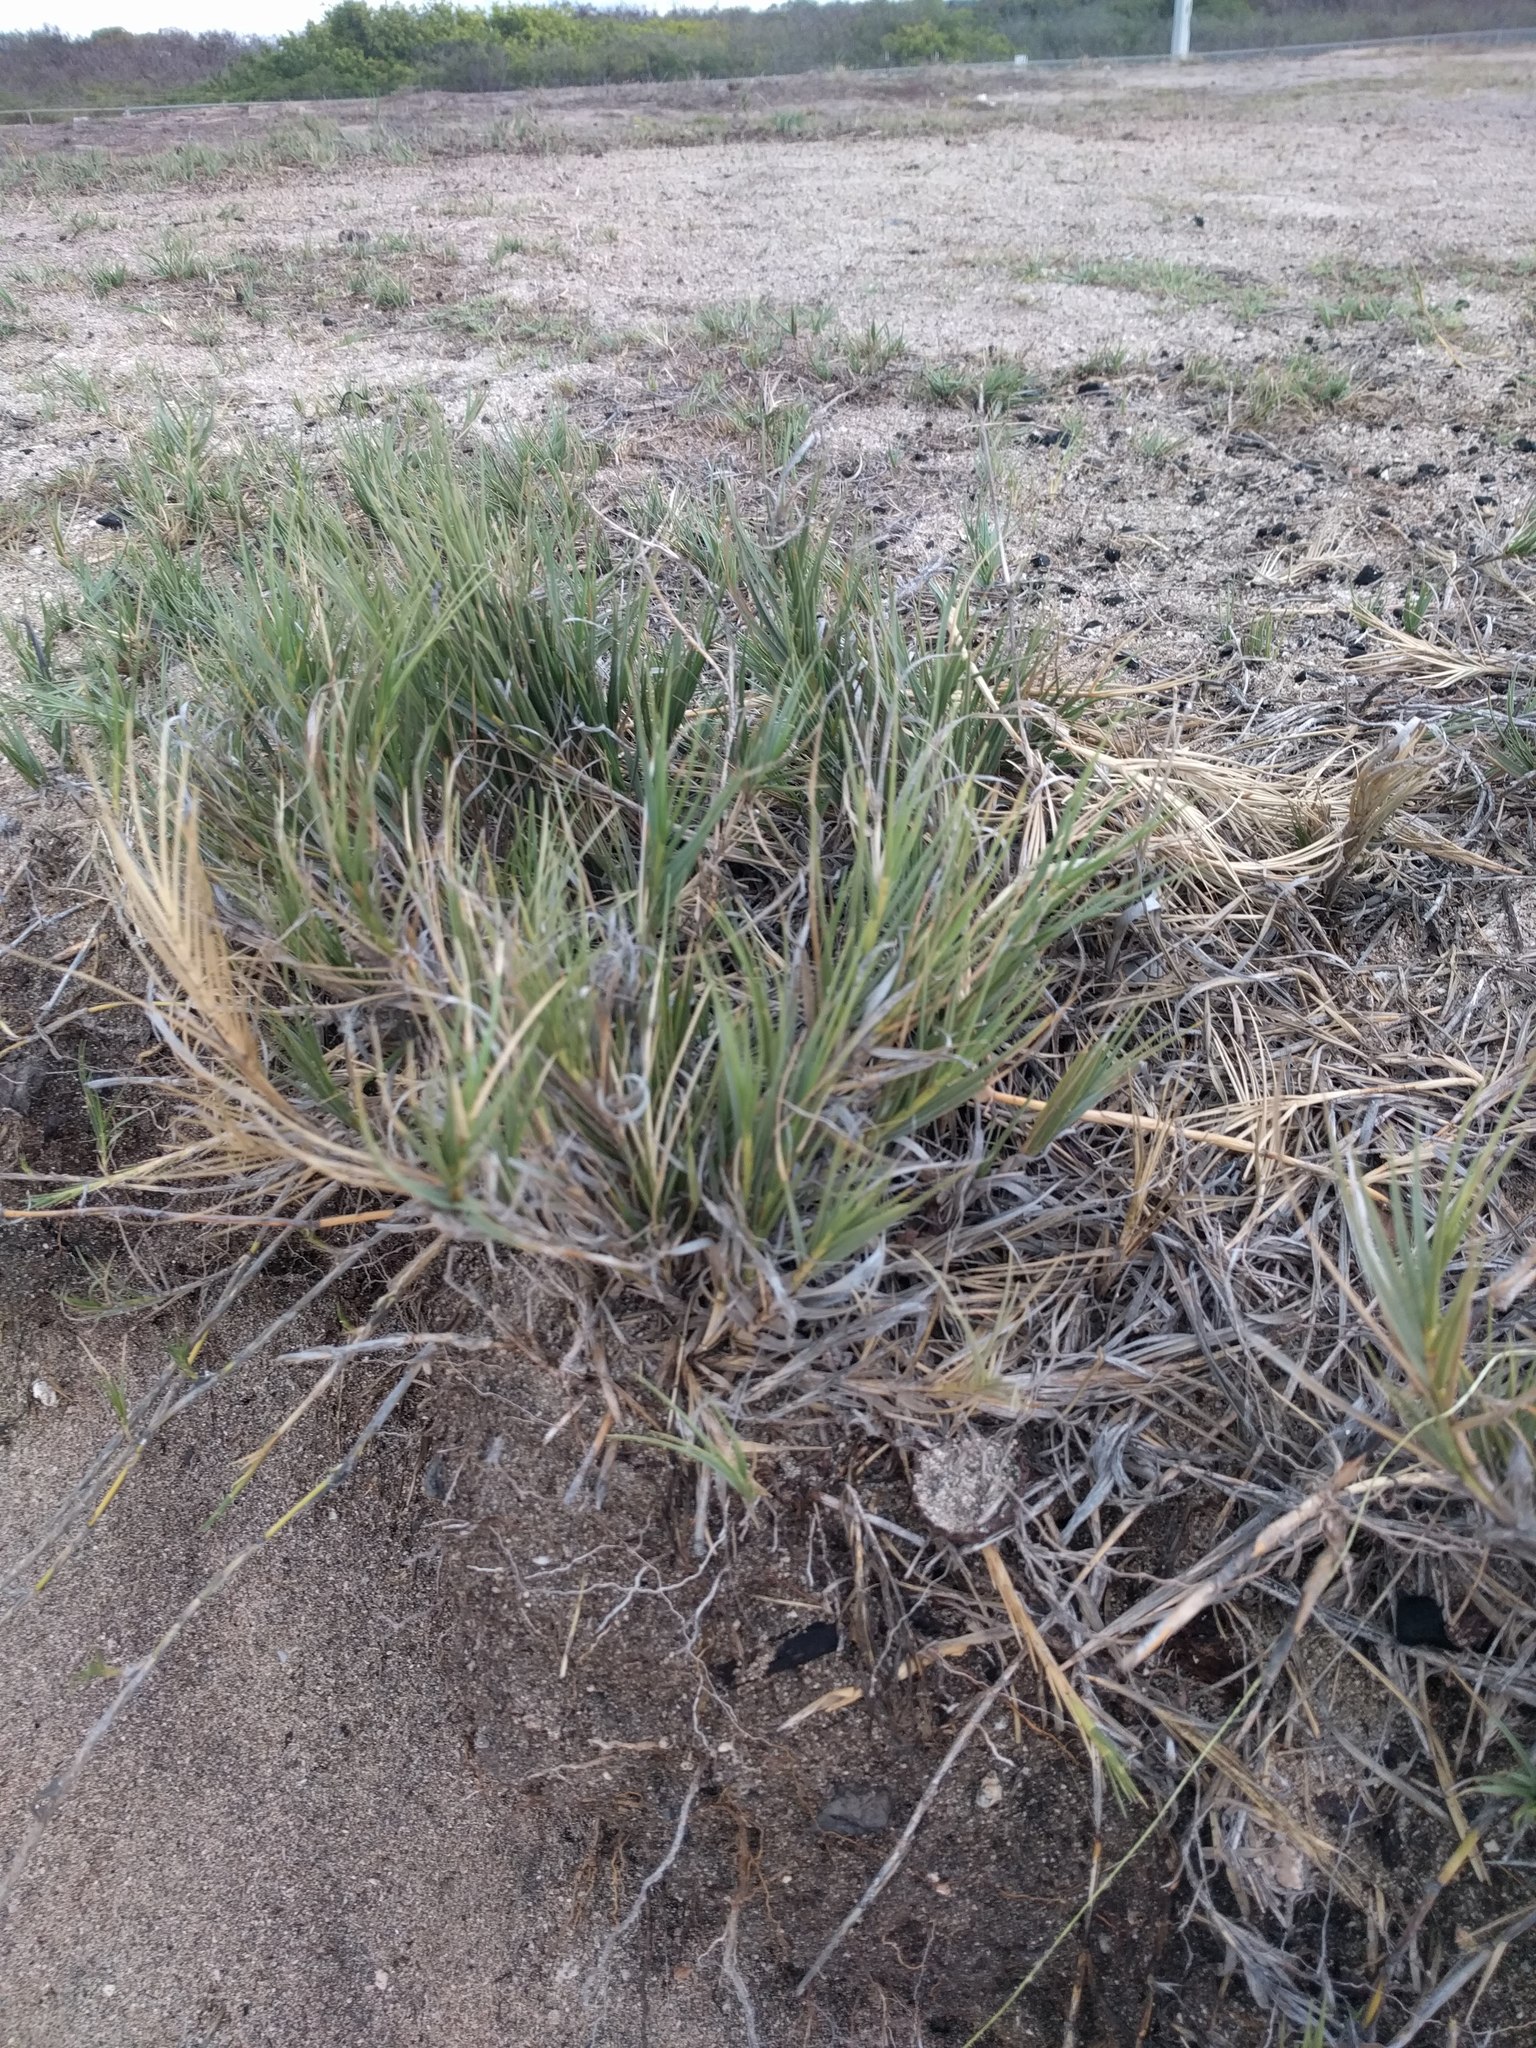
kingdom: Plantae
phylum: Tracheophyta
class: Liliopsida
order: Poales
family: Poaceae
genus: Sporobolus
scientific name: Sporobolus virginicus
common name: Beach dropseed
